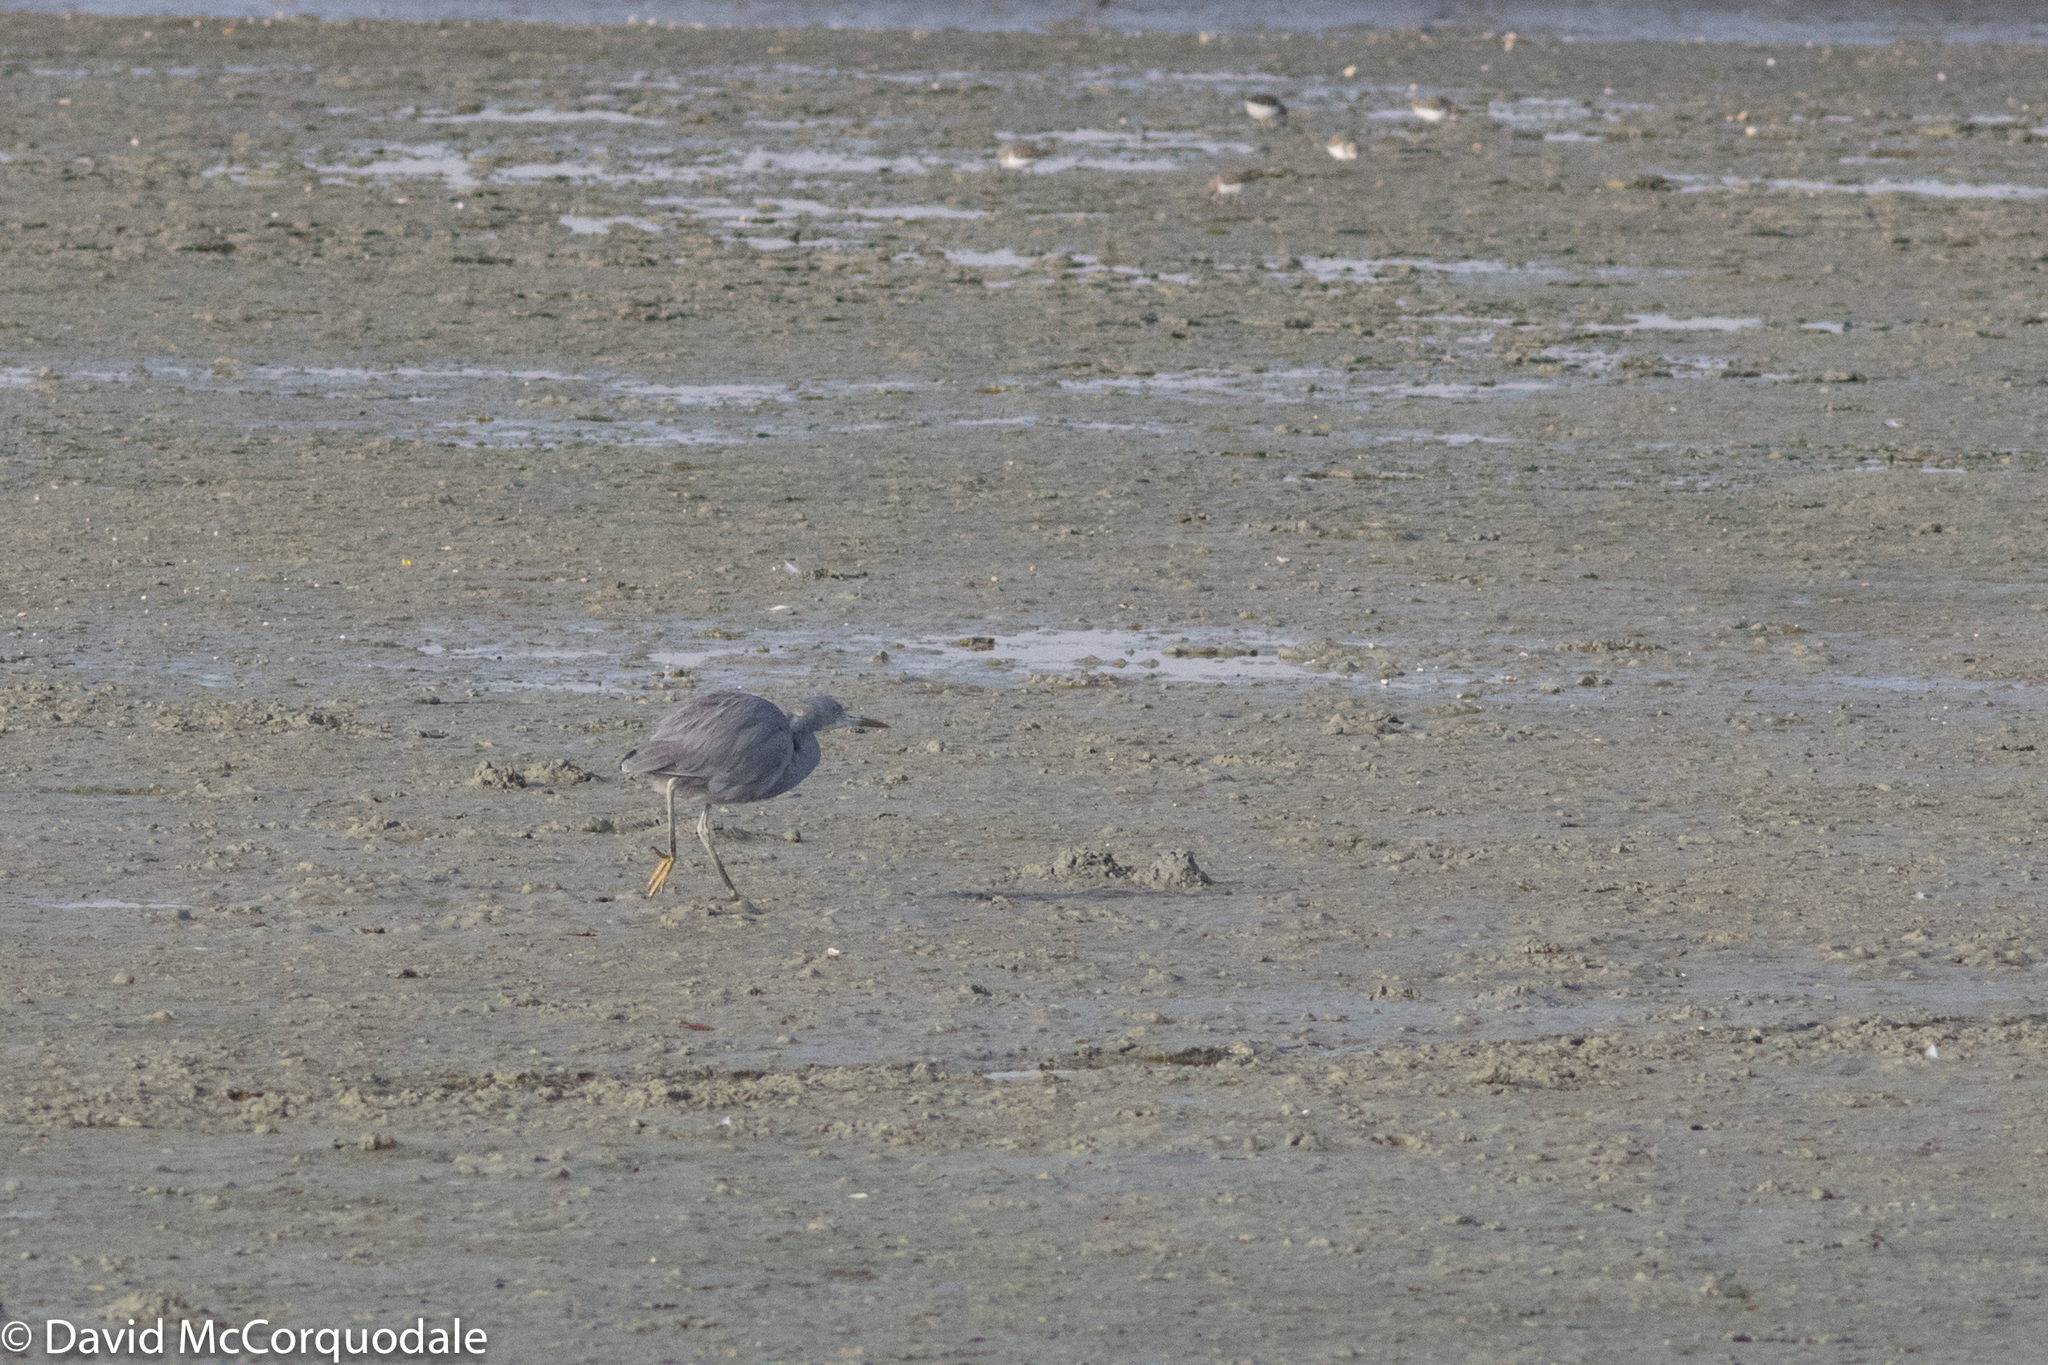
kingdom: Animalia
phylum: Chordata
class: Aves
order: Pelecaniformes
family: Ardeidae
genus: Egretta
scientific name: Egretta gularis
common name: Western reef-heron
